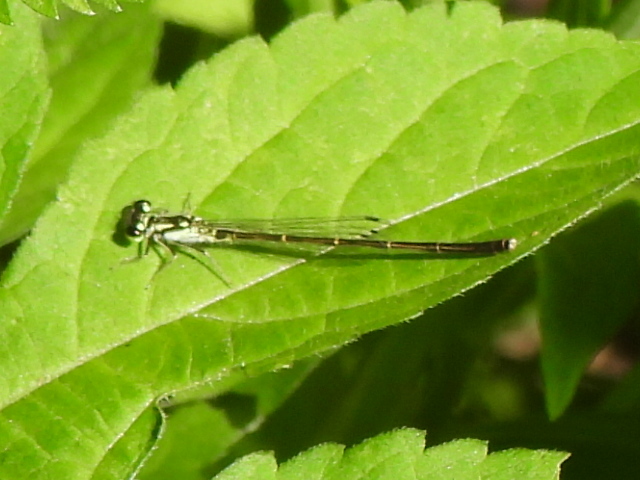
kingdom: Animalia
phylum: Arthropoda
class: Insecta
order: Odonata
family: Coenagrionidae
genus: Ischnura
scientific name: Ischnura posita
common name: Fragile forktail
